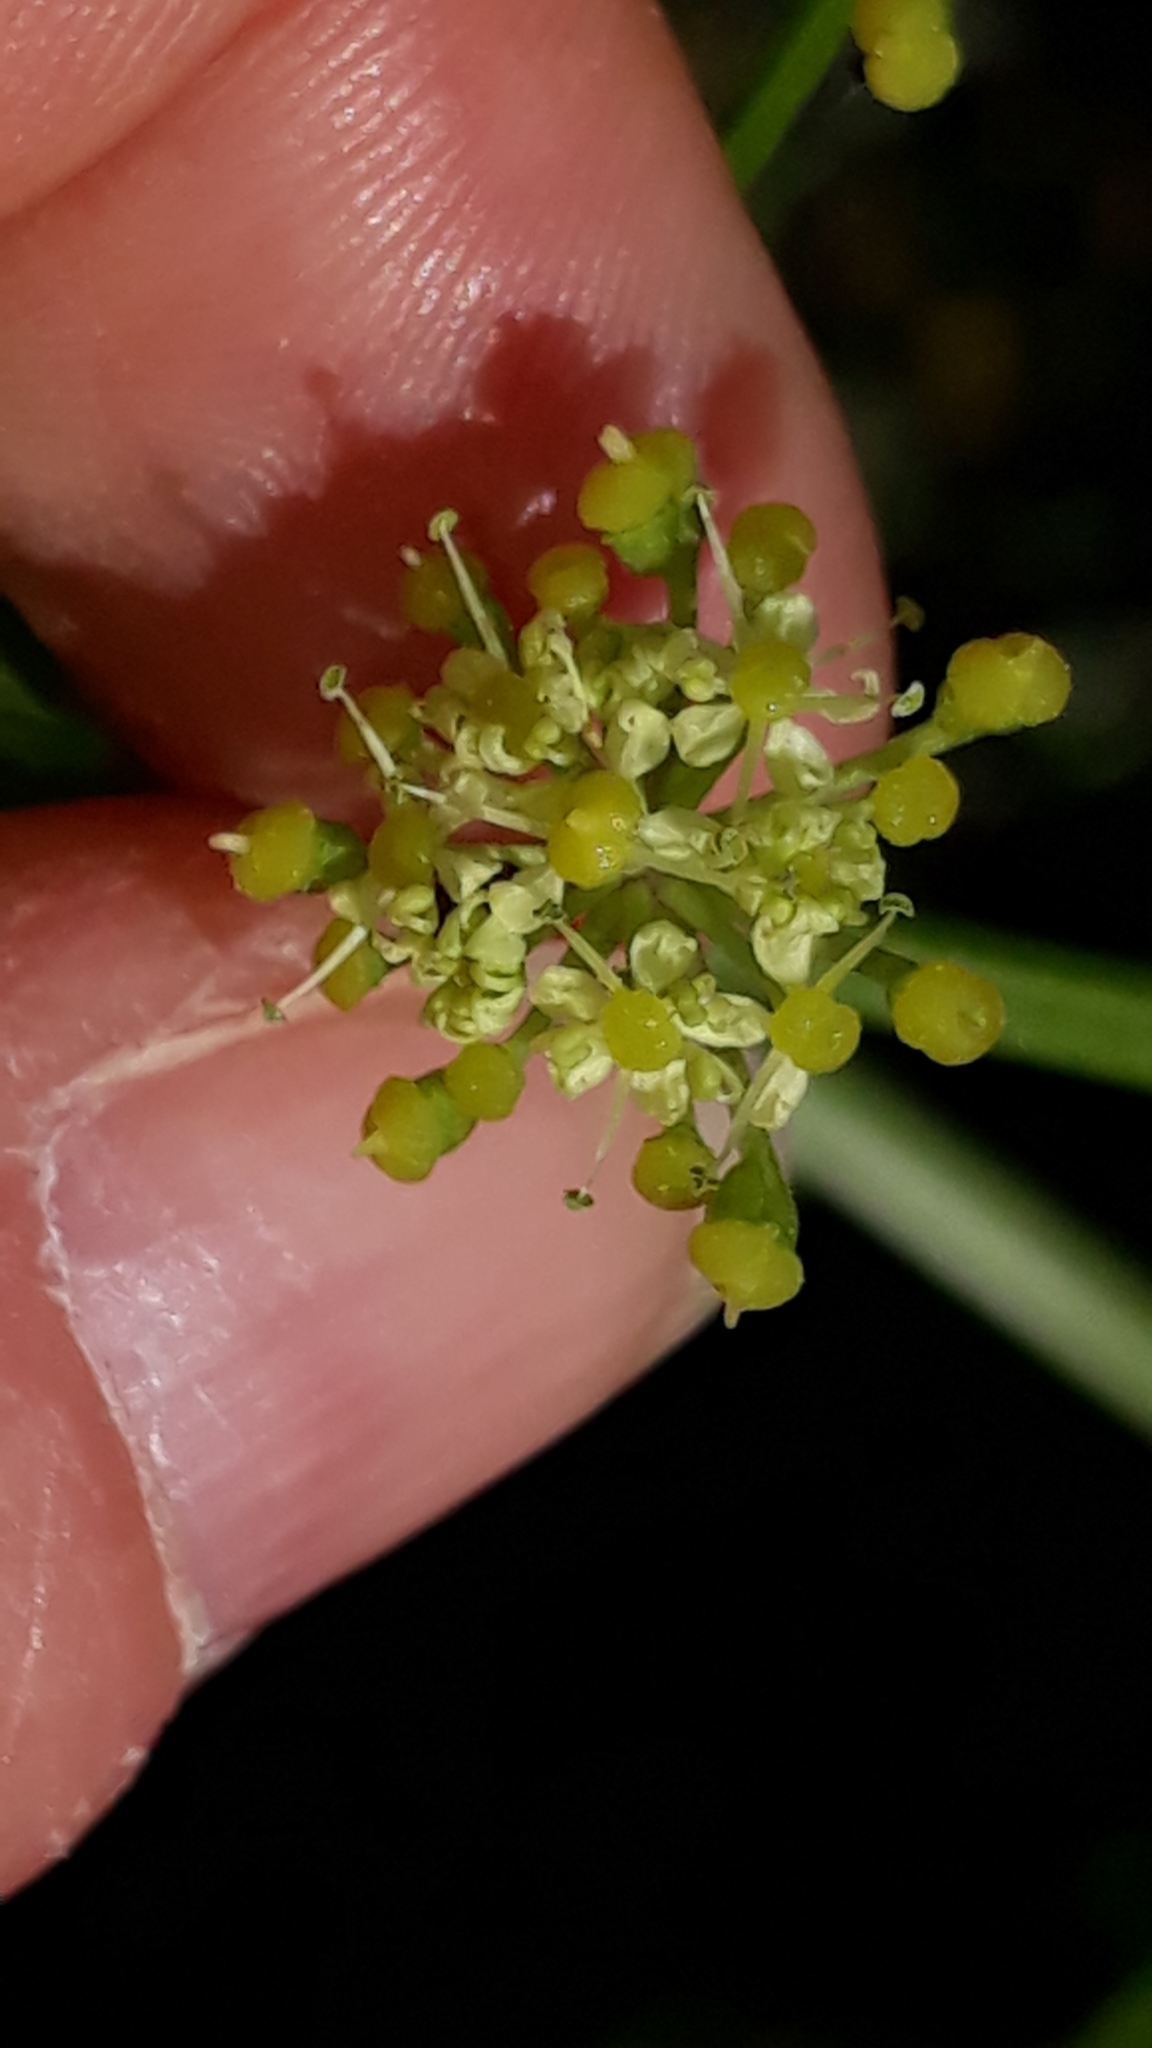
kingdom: Plantae
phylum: Tracheophyta
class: Magnoliopsida
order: Apiales
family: Apiaceae
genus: Smyrnium
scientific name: Smyrnium olusatrum
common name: Alexanders
